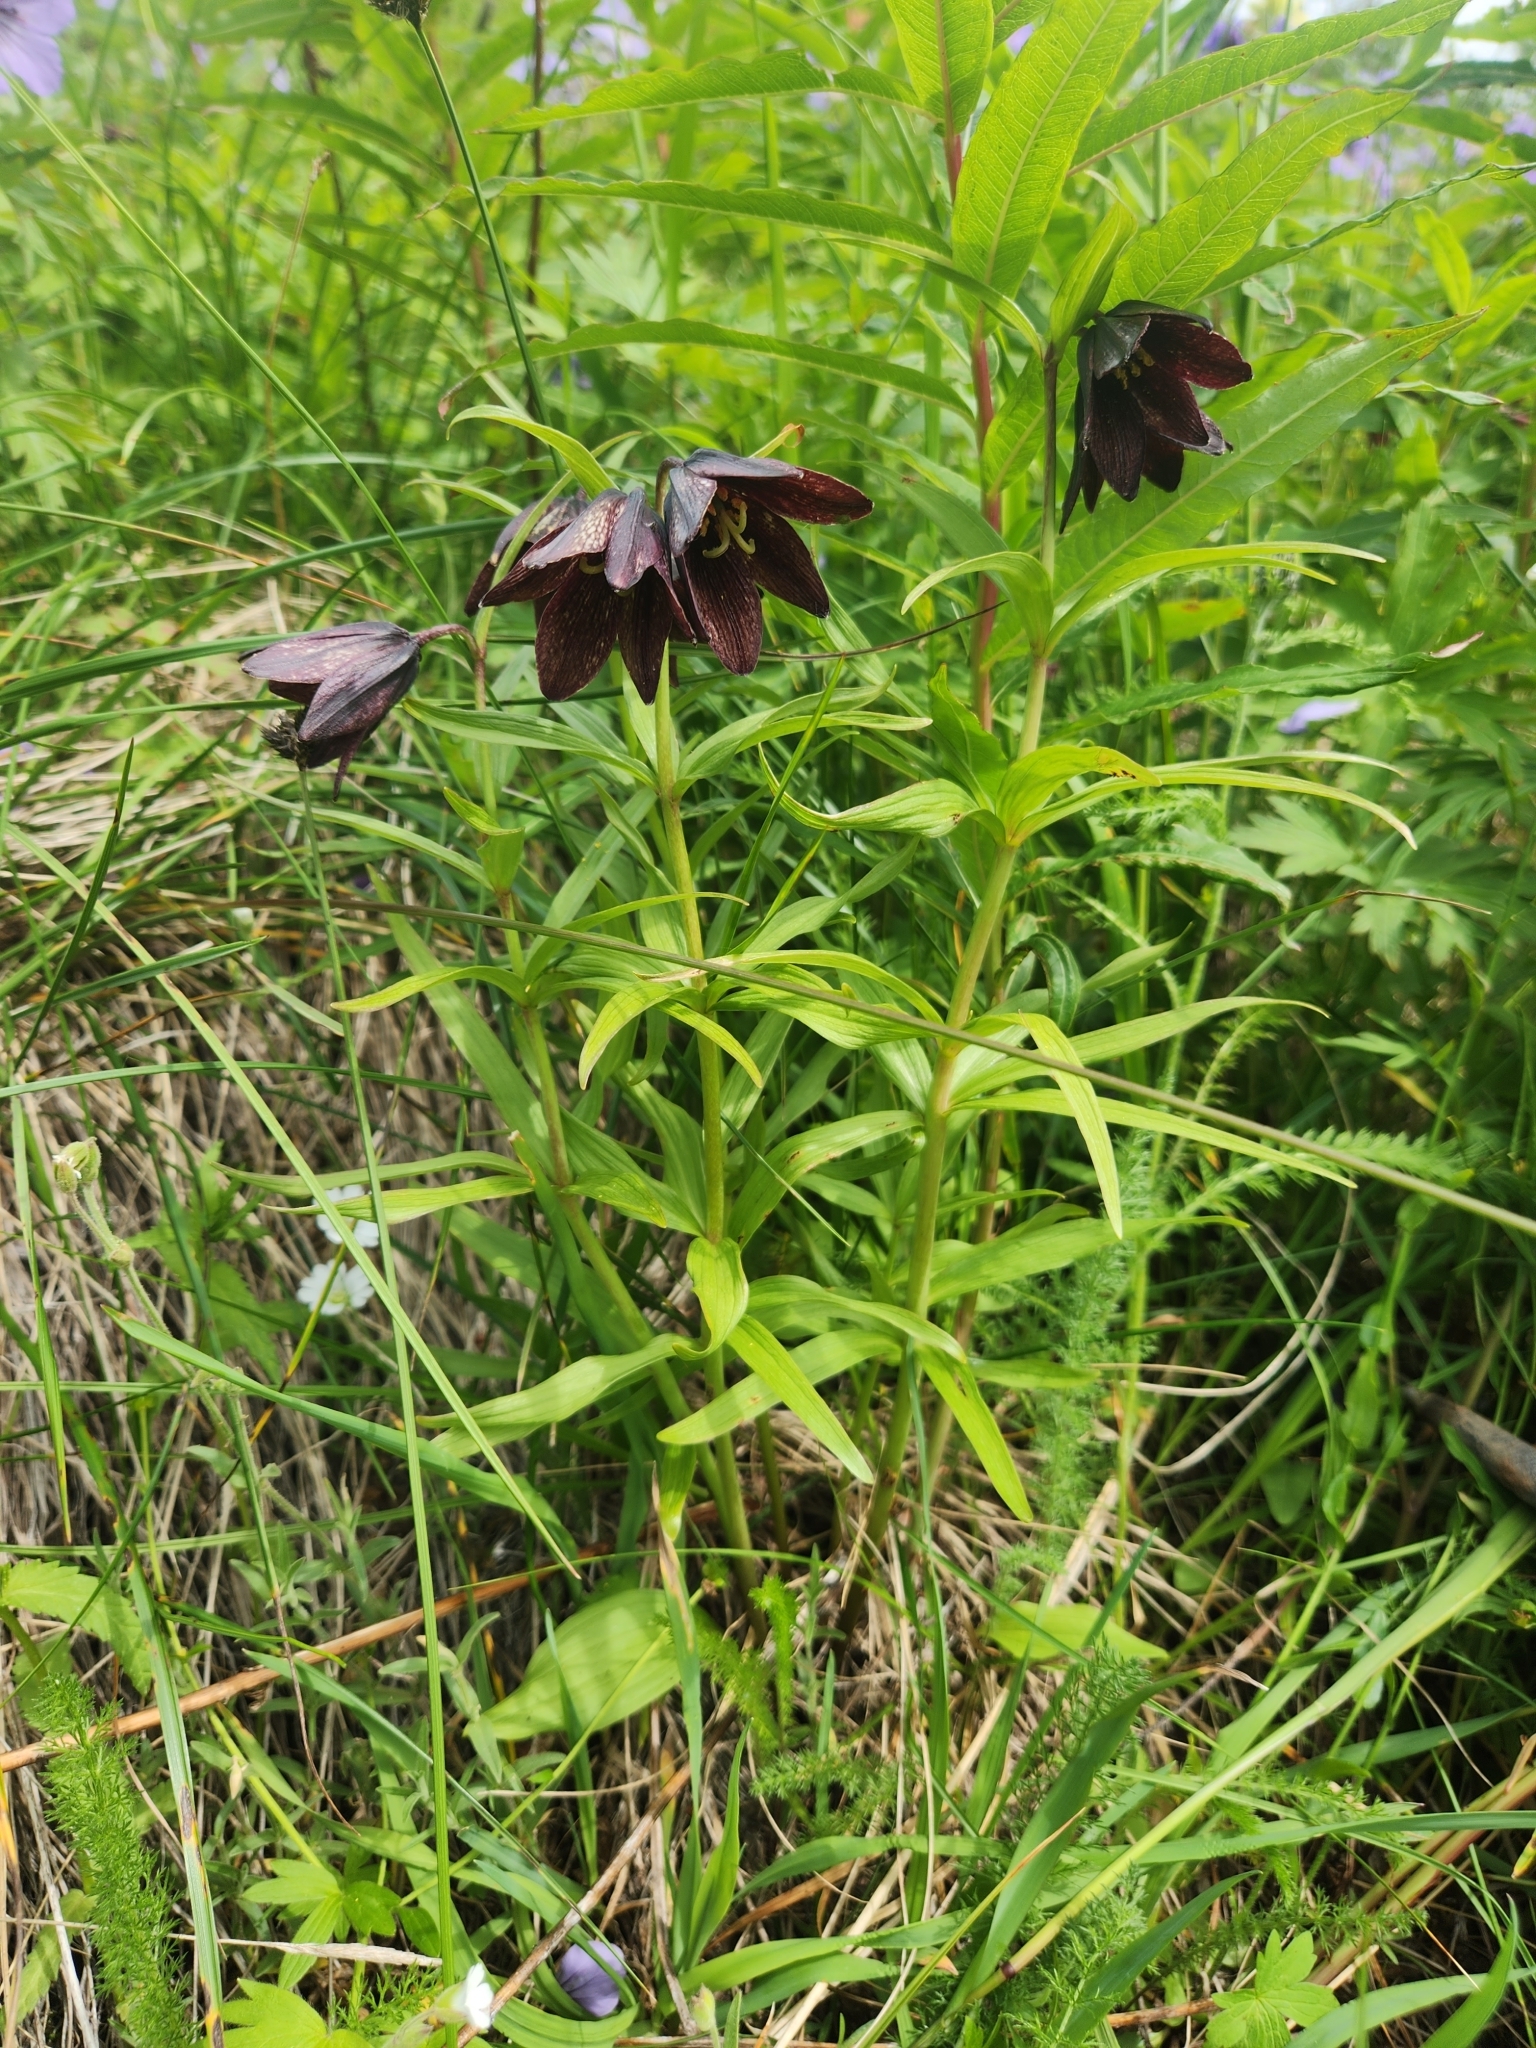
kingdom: Plantae
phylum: Tracheophyta
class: Liliopsida
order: Liliales
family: Liliaceae
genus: Fritillaria
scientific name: Fritillaria camschatcensis
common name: Kamchatka fritillary
